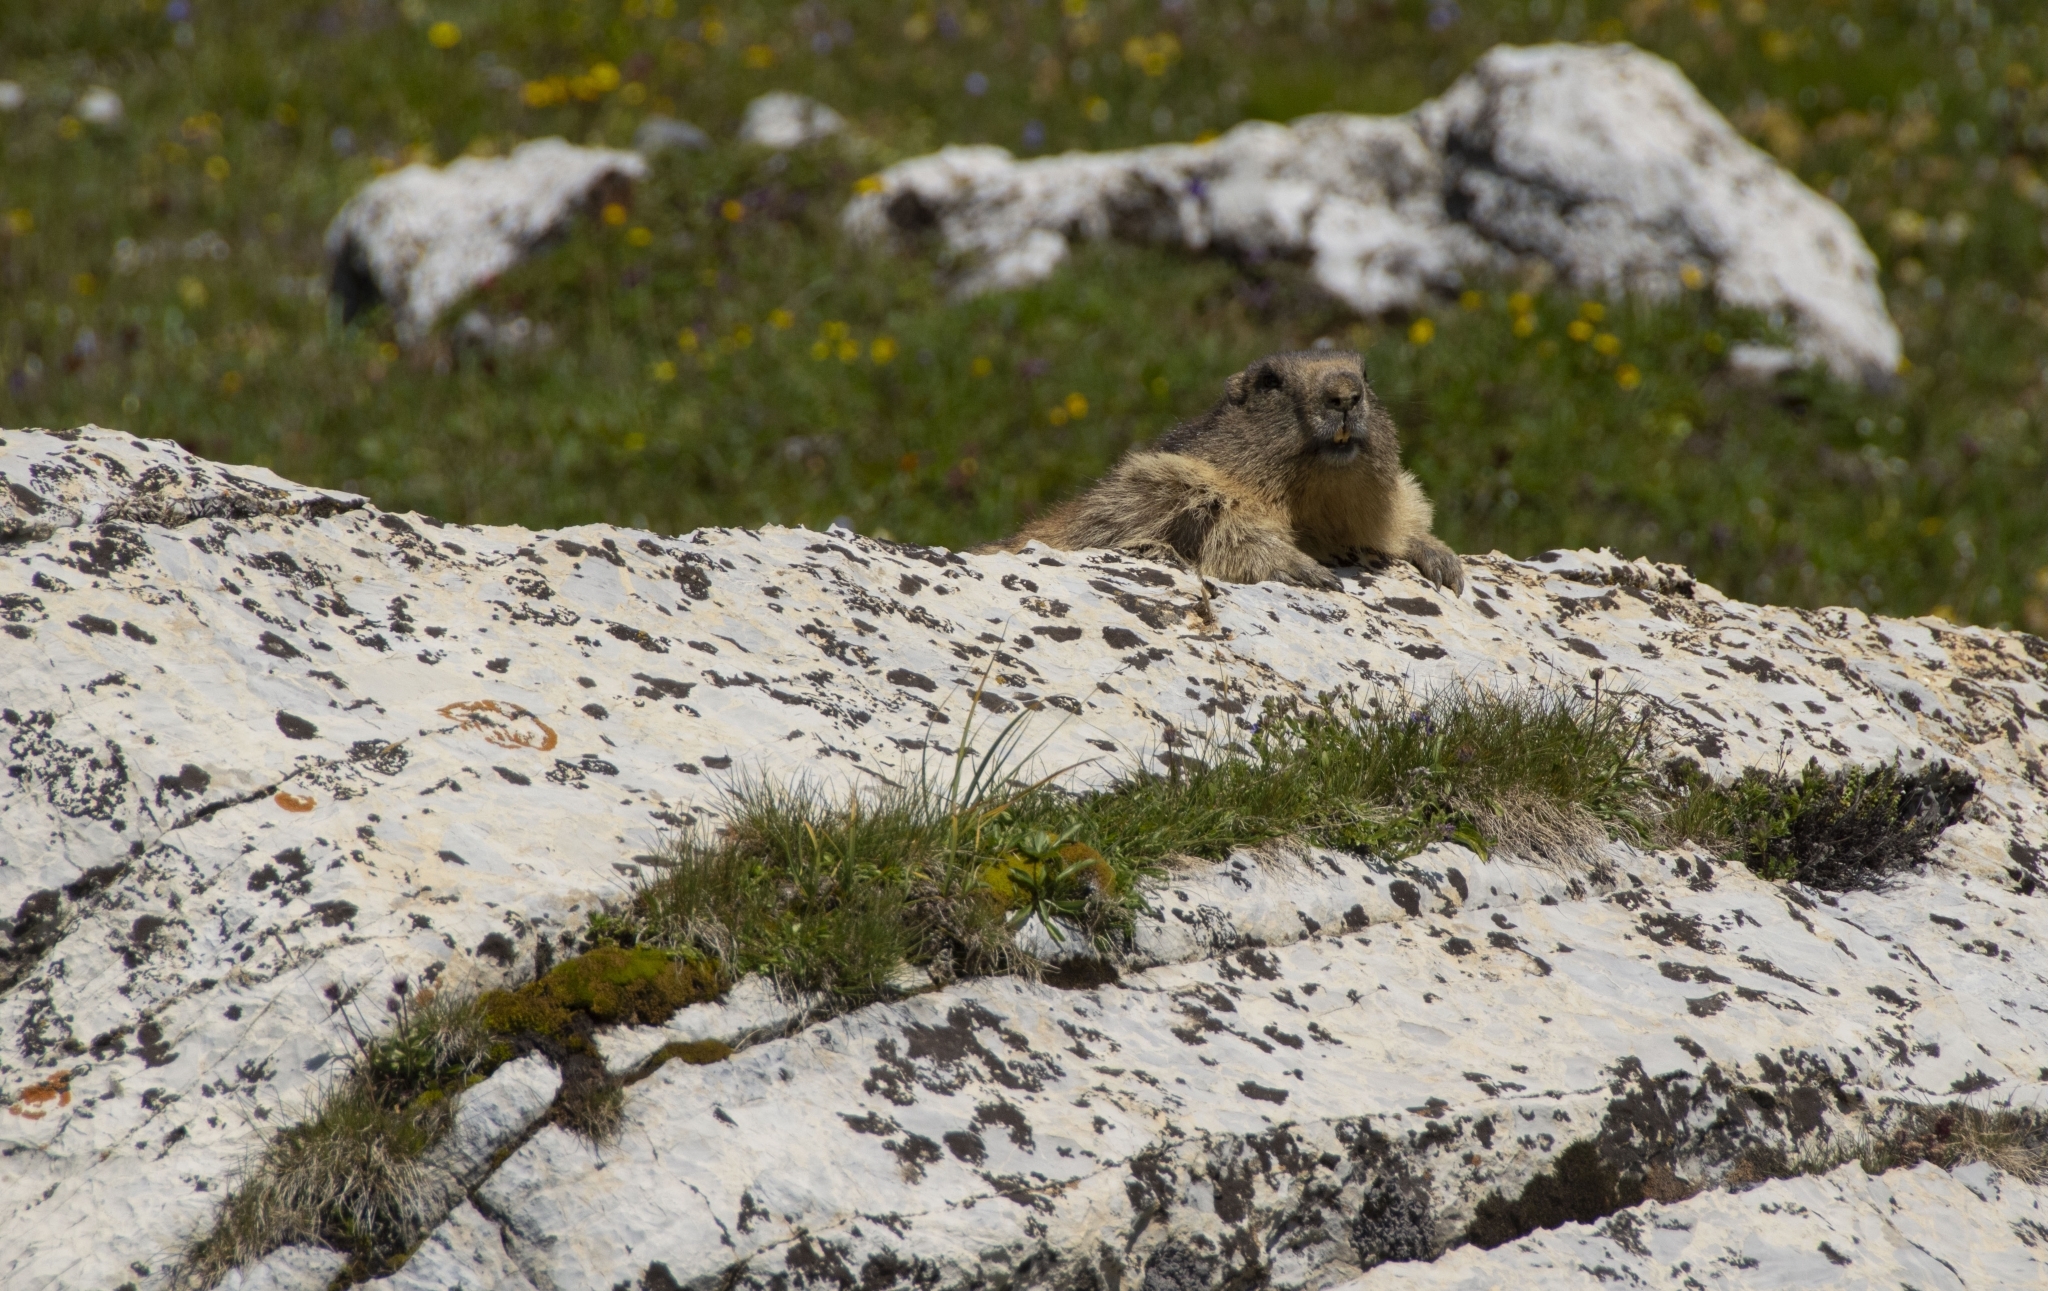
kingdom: Animalia
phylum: Chordata
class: Mammalia
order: Rodentia
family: Sciuridae
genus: Marmota
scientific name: Marmota marmota
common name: Alpine marmot
